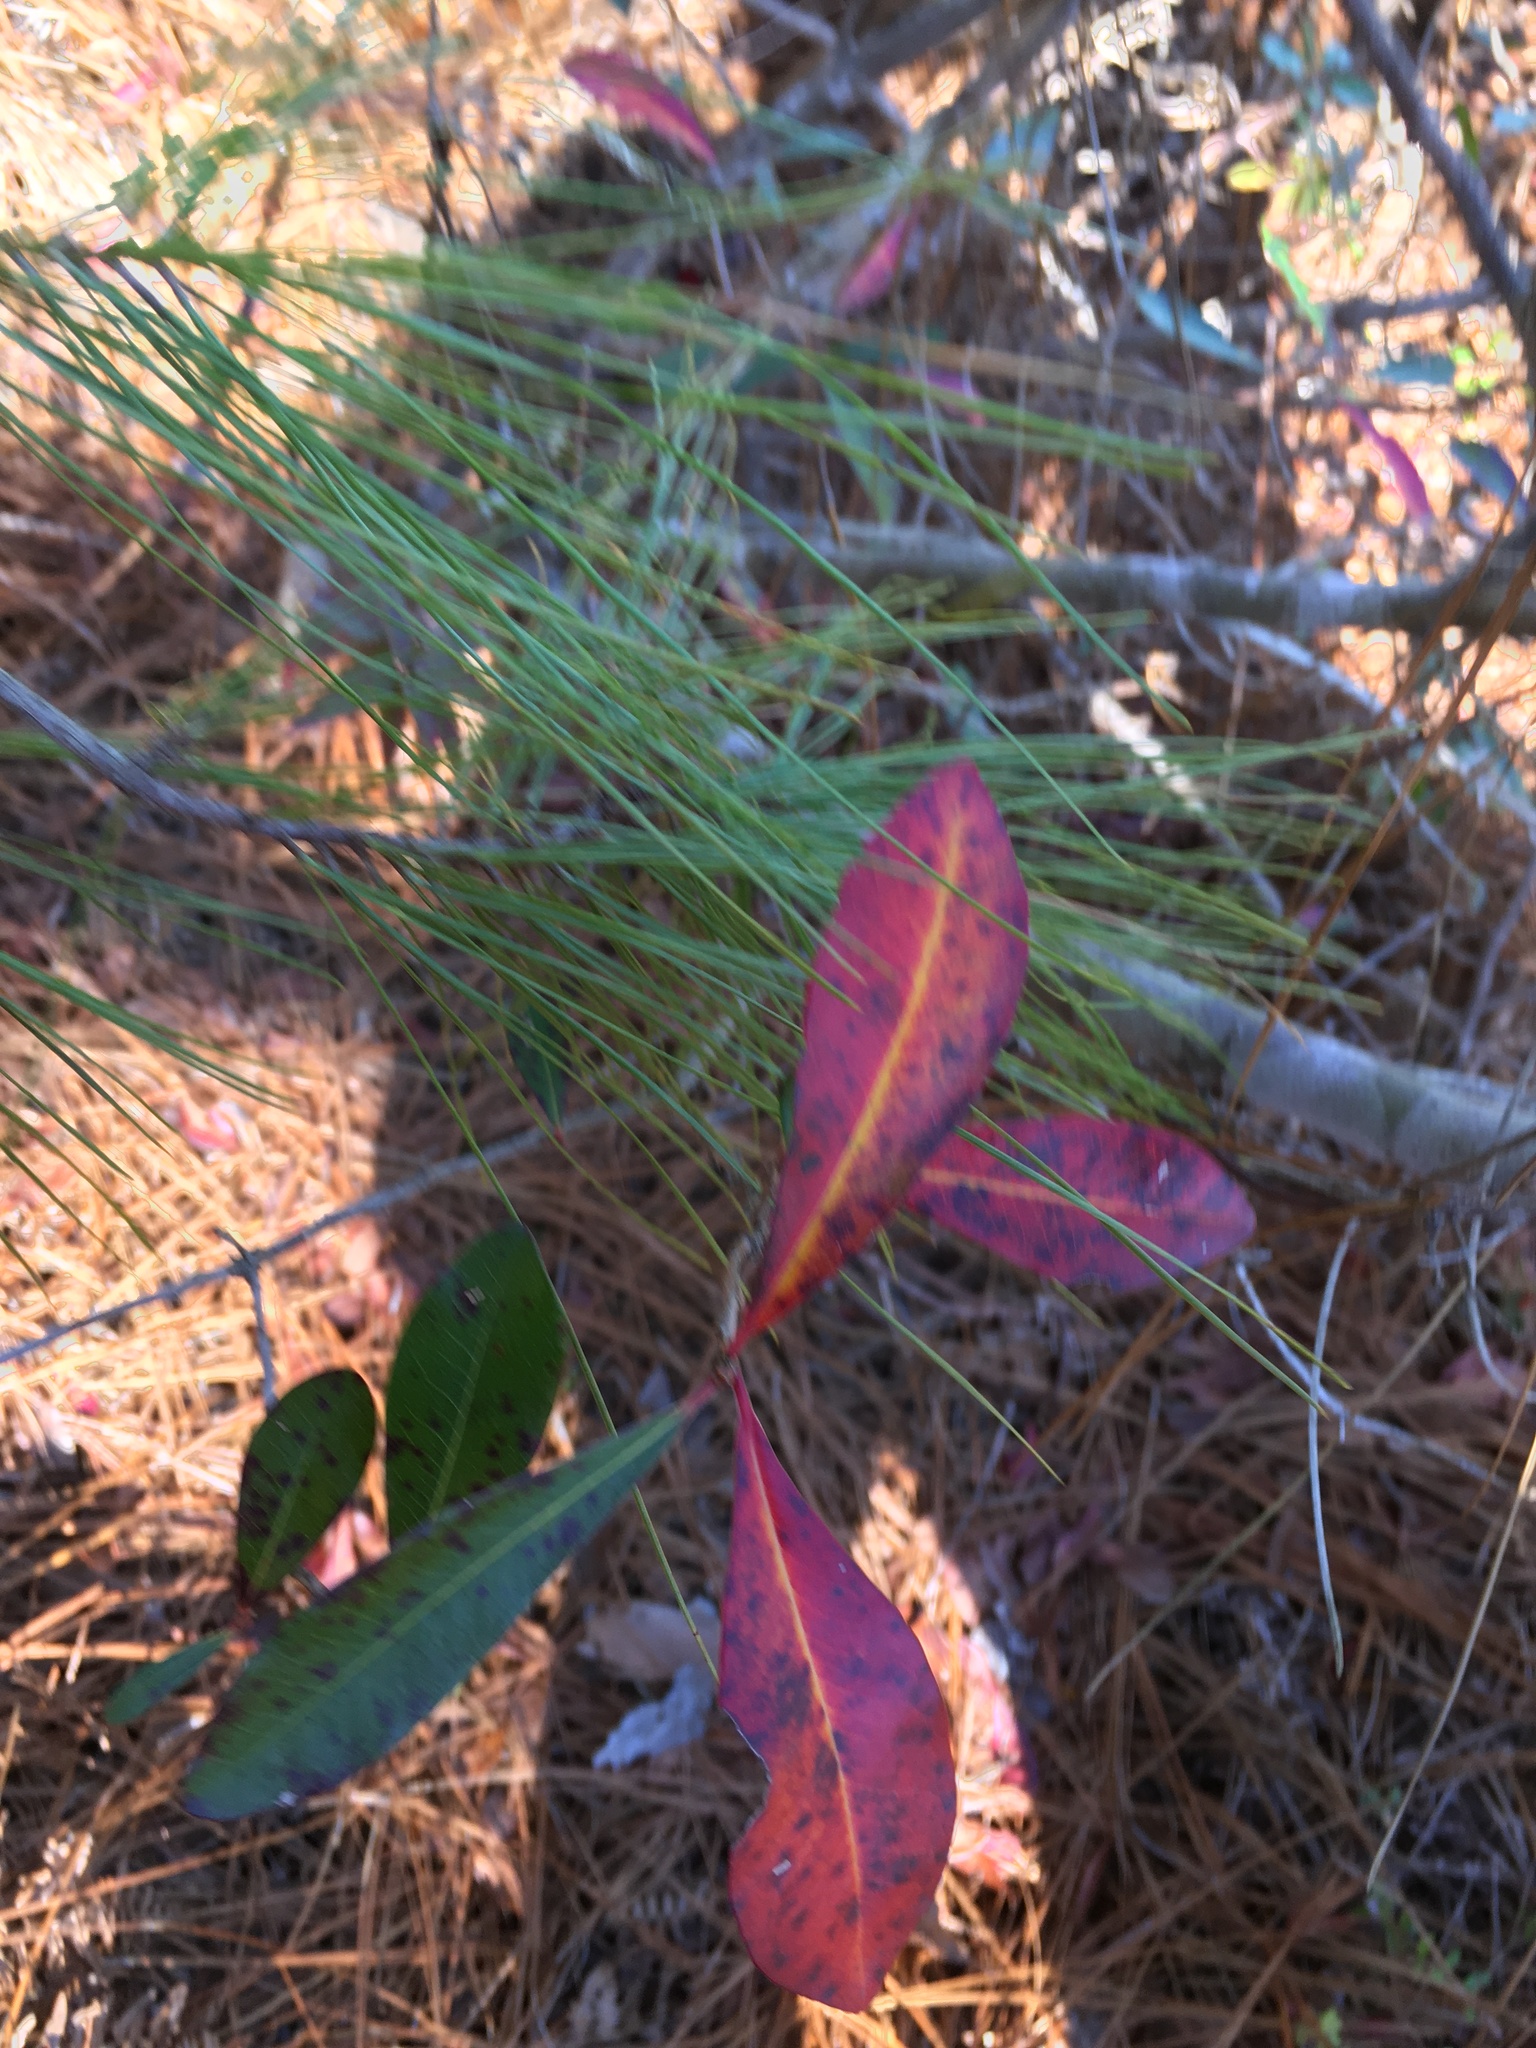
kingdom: Plantae
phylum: Tracheophyta
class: Magnoliopsida
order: Ericales
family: Cyrillaceae
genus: Cyrilla
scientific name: Cyrilla racemiflora
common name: Black titi
